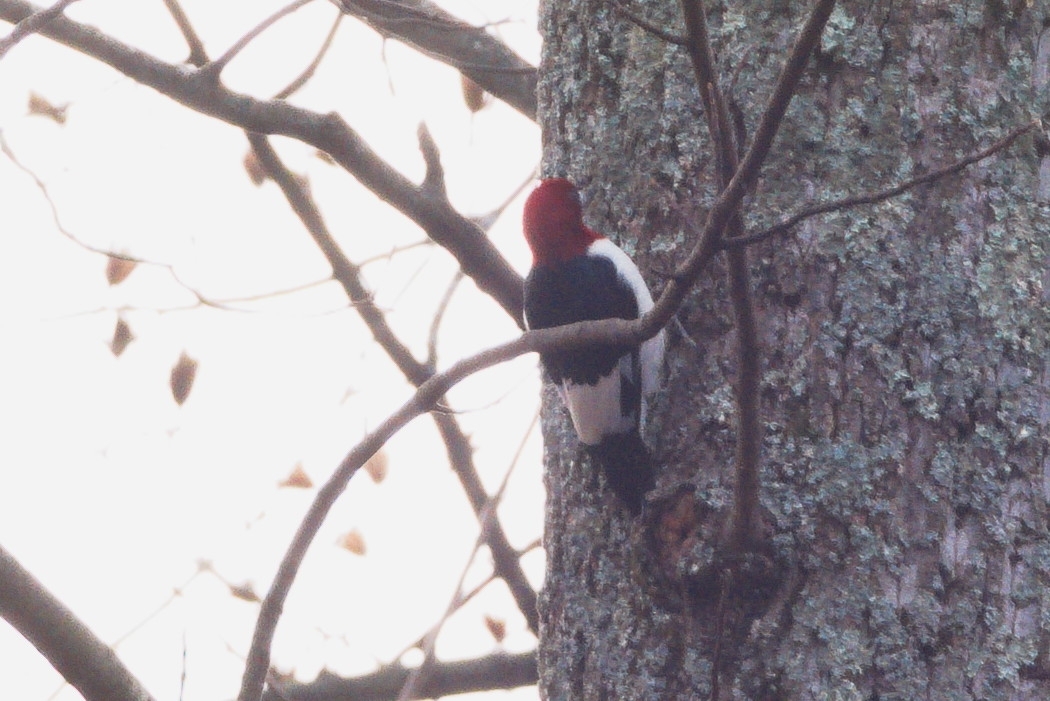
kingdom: Animalia
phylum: Chordata
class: Aves
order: Piciformes
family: Picidae
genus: Melanerpes
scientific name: Melanerpes erythrocephalus
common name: Red-headed woodpecker
